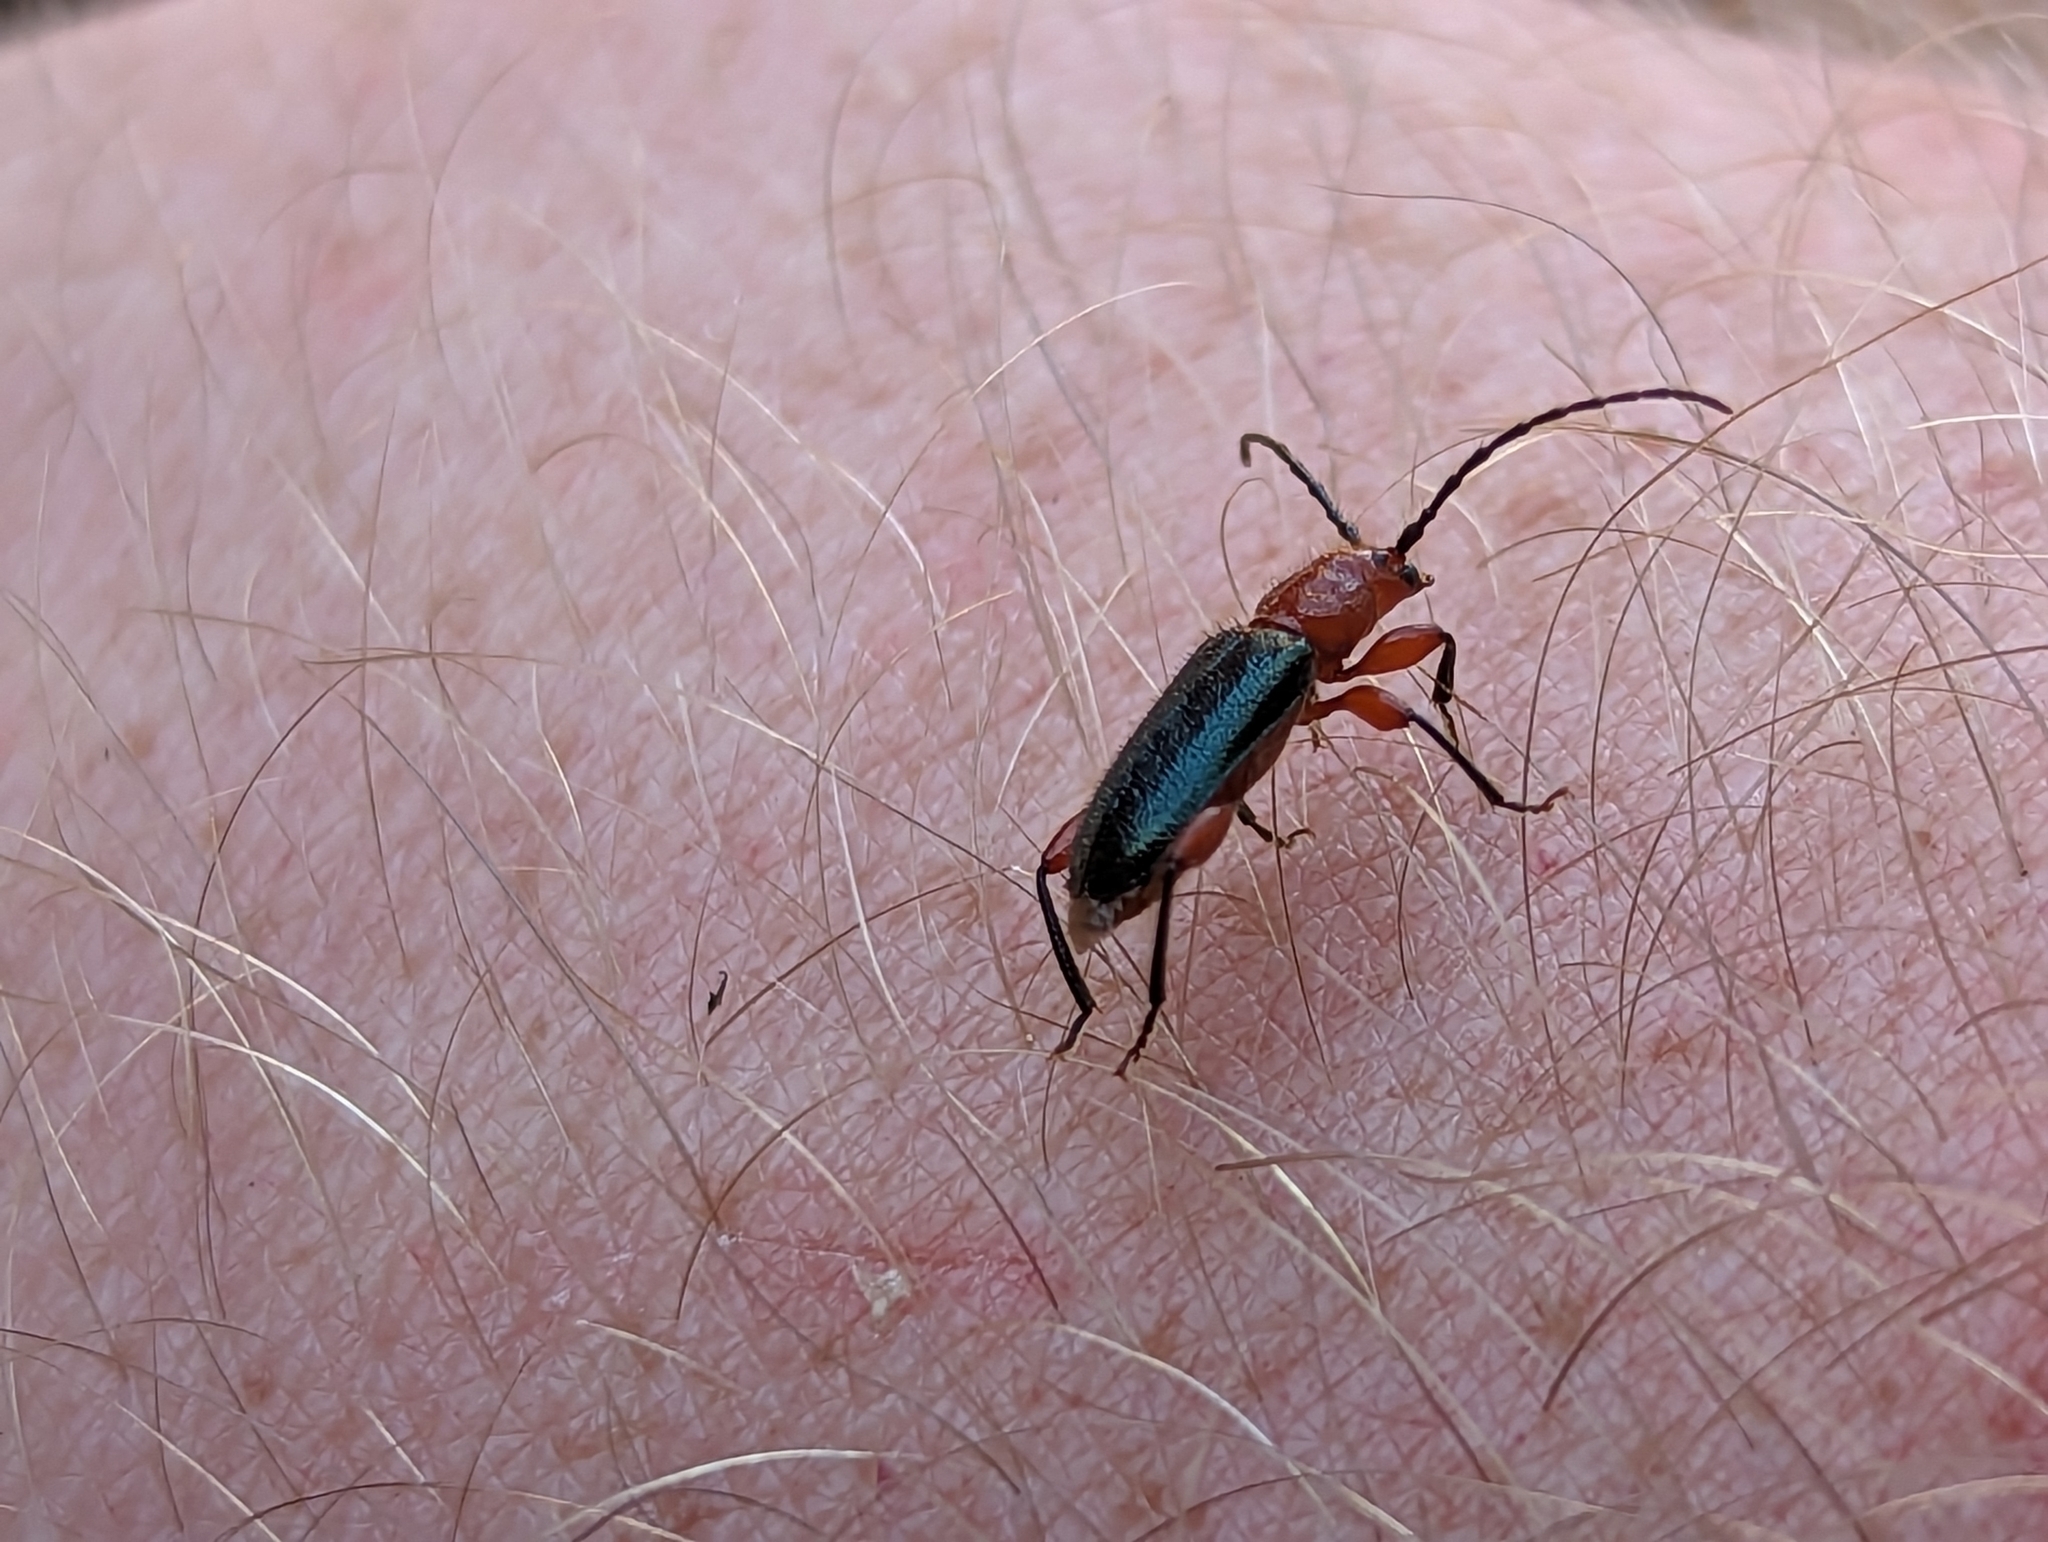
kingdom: Animalia
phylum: Arthropoda
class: Insecta
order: Coleoptera
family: Cerambycidae
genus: Phymatodes
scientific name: Phymatodes amoenus
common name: Grape-vine phymatodes
